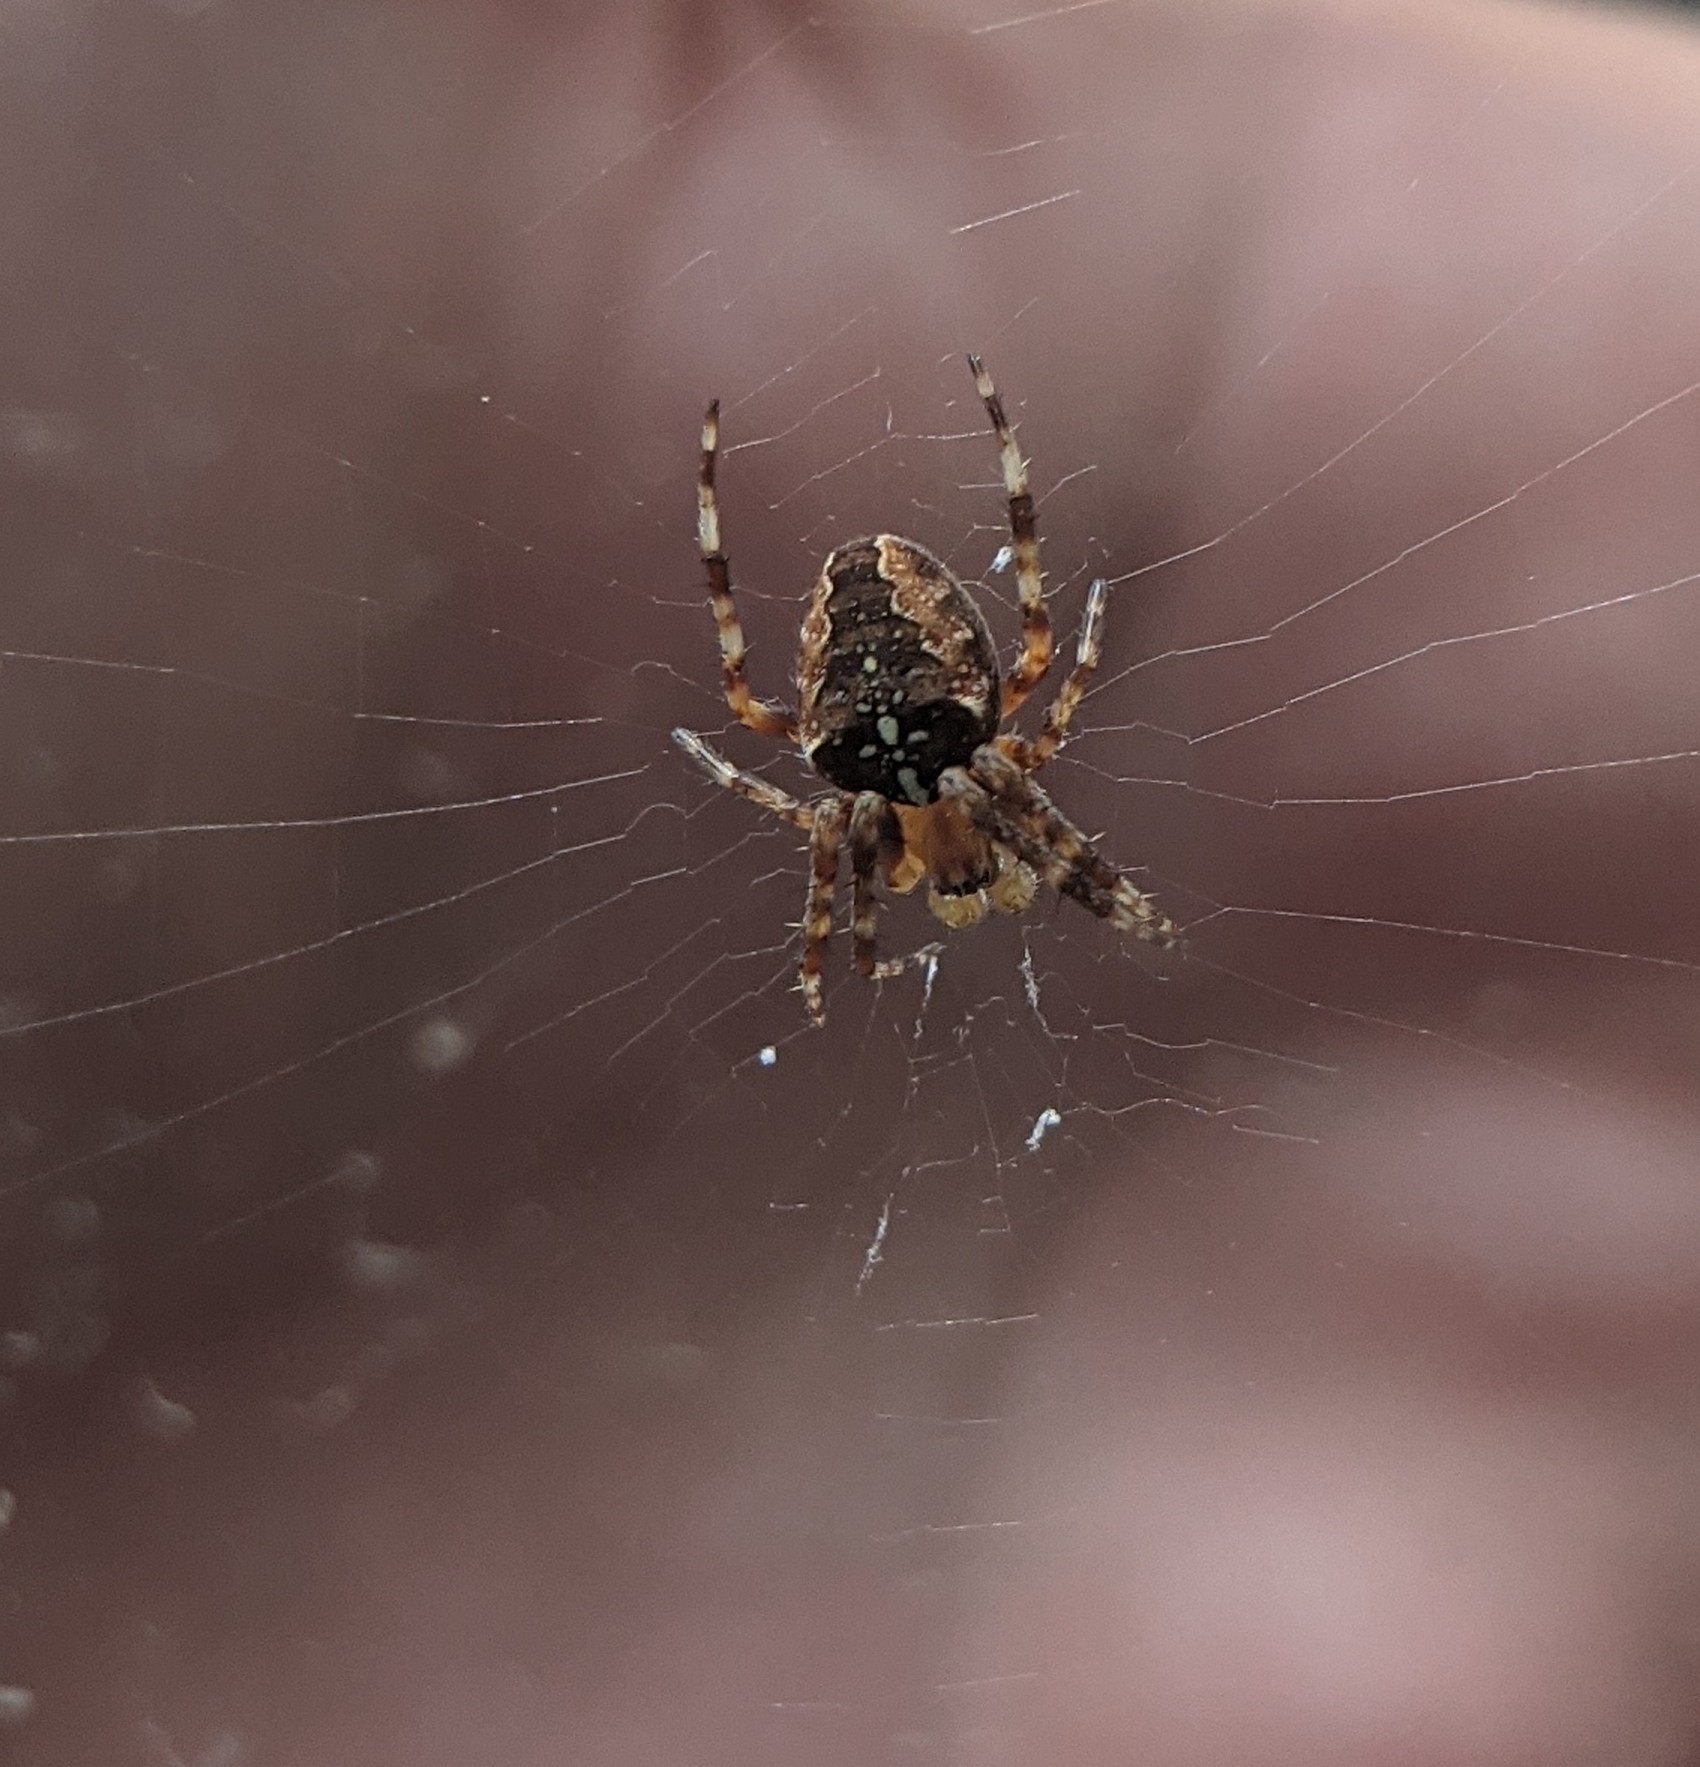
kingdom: Animalia
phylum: Arthropoda
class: Arachnida
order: Araneae
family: Araneidae
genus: Araneus
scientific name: Araneus diadematus
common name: Cross orbweaver
